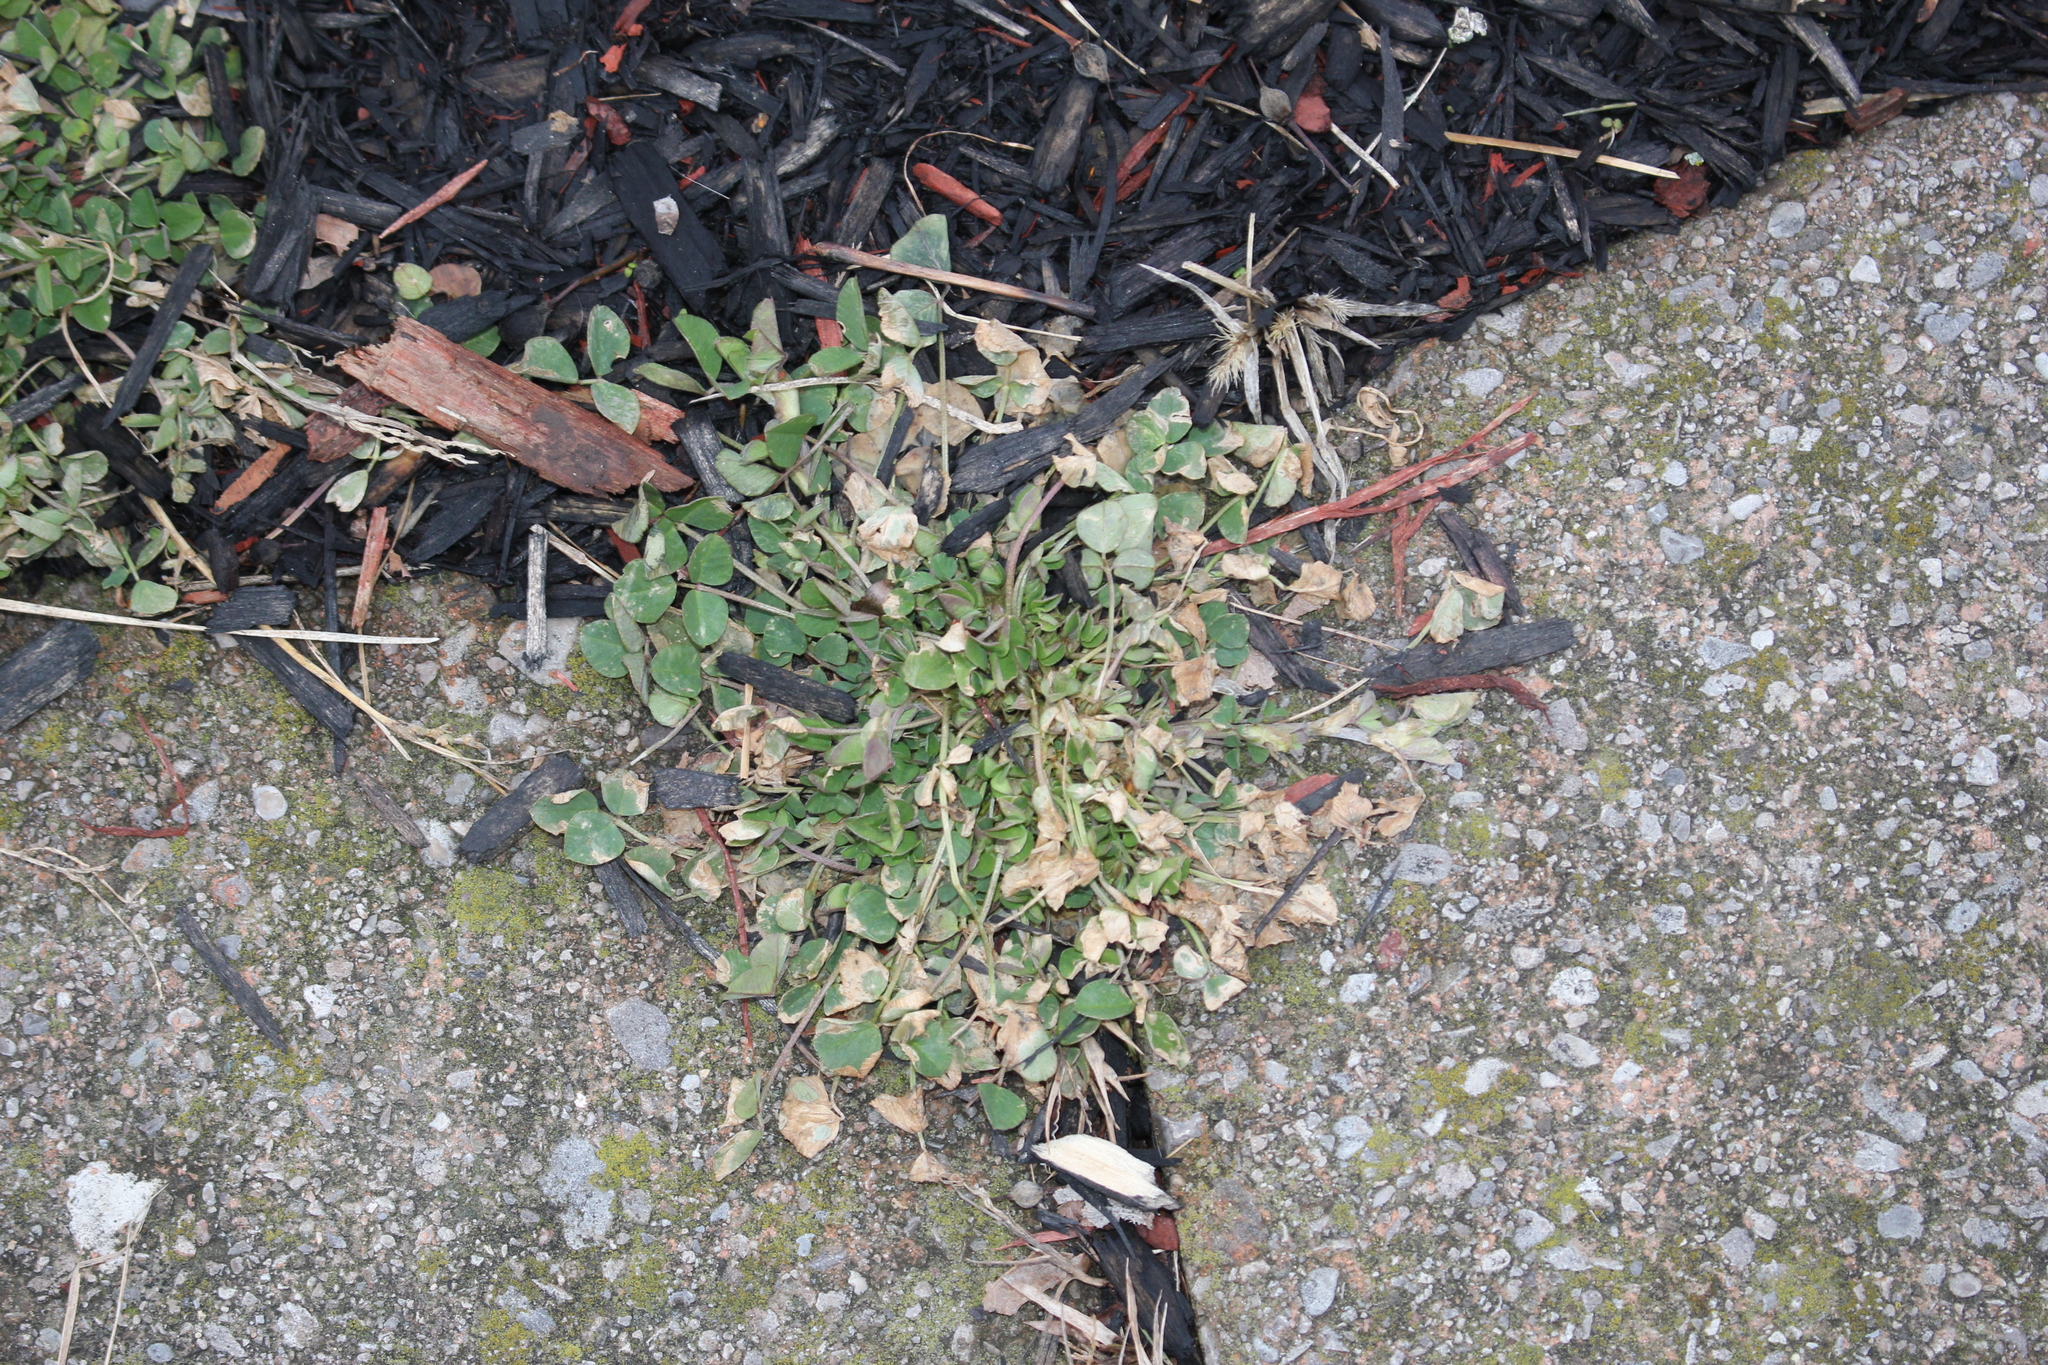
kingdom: Plantae
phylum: Tracheophyta
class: Magnoliopsida
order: Fabales
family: Fabaceae
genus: Medicago
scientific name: Medicago lupulina
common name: Black medick
